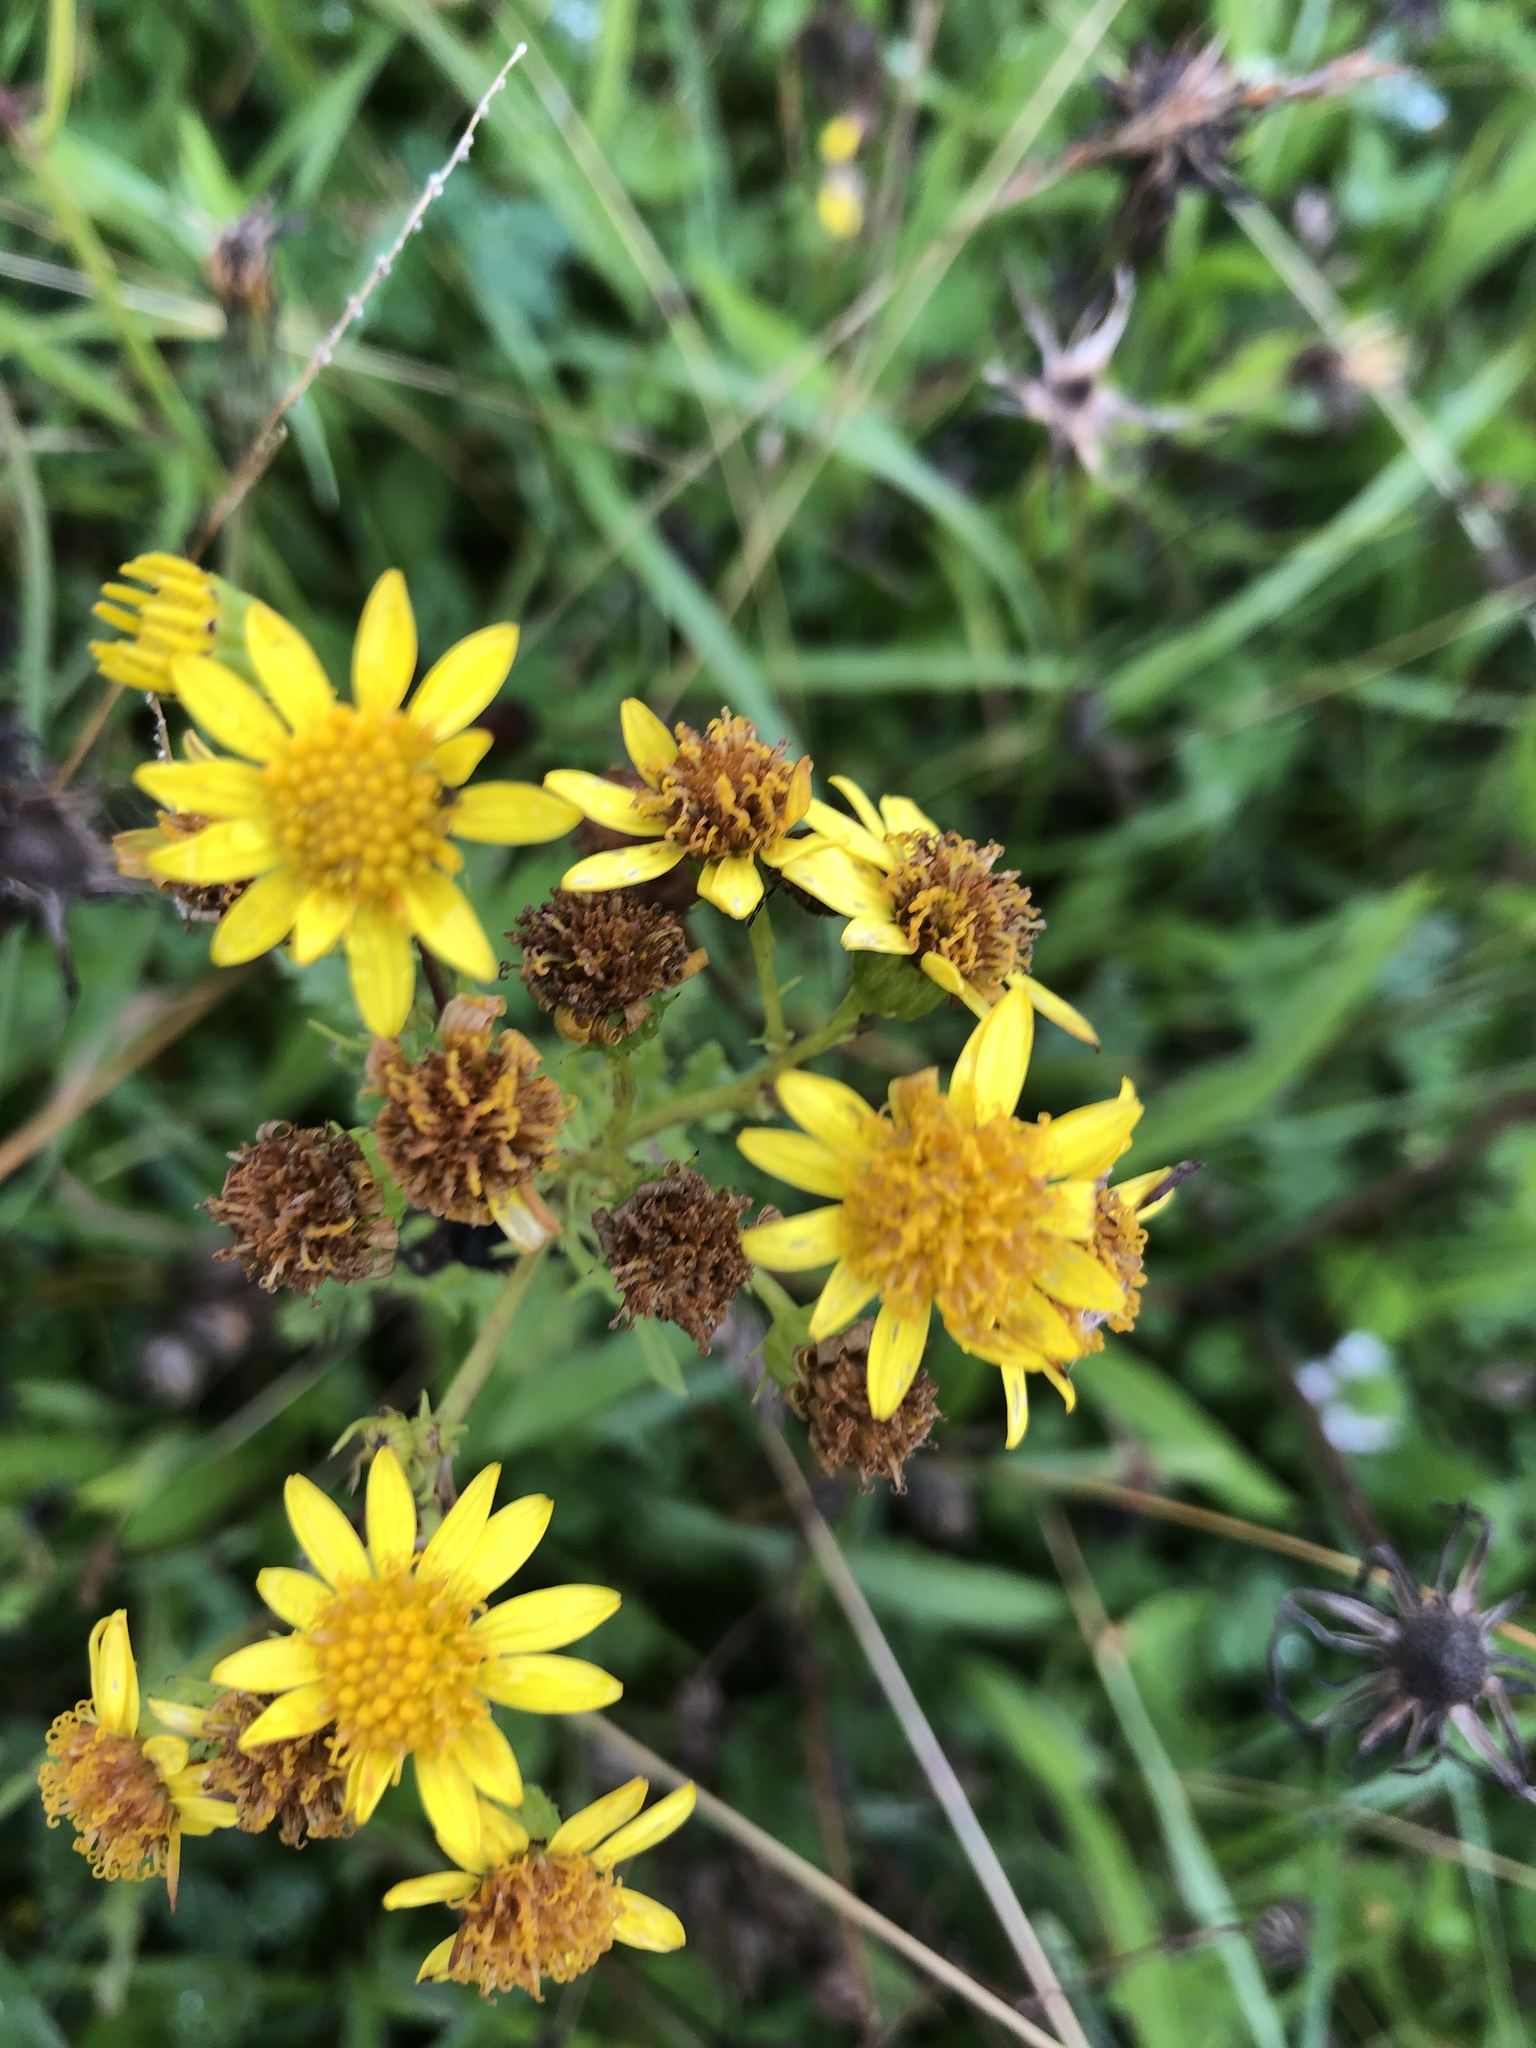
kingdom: Plantae
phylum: Tracheophyta
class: Magnoliopsida
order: Asterales
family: Asteraceae
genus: Jacobaea
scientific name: Jacobaea vulgaris
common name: Stinking willie
